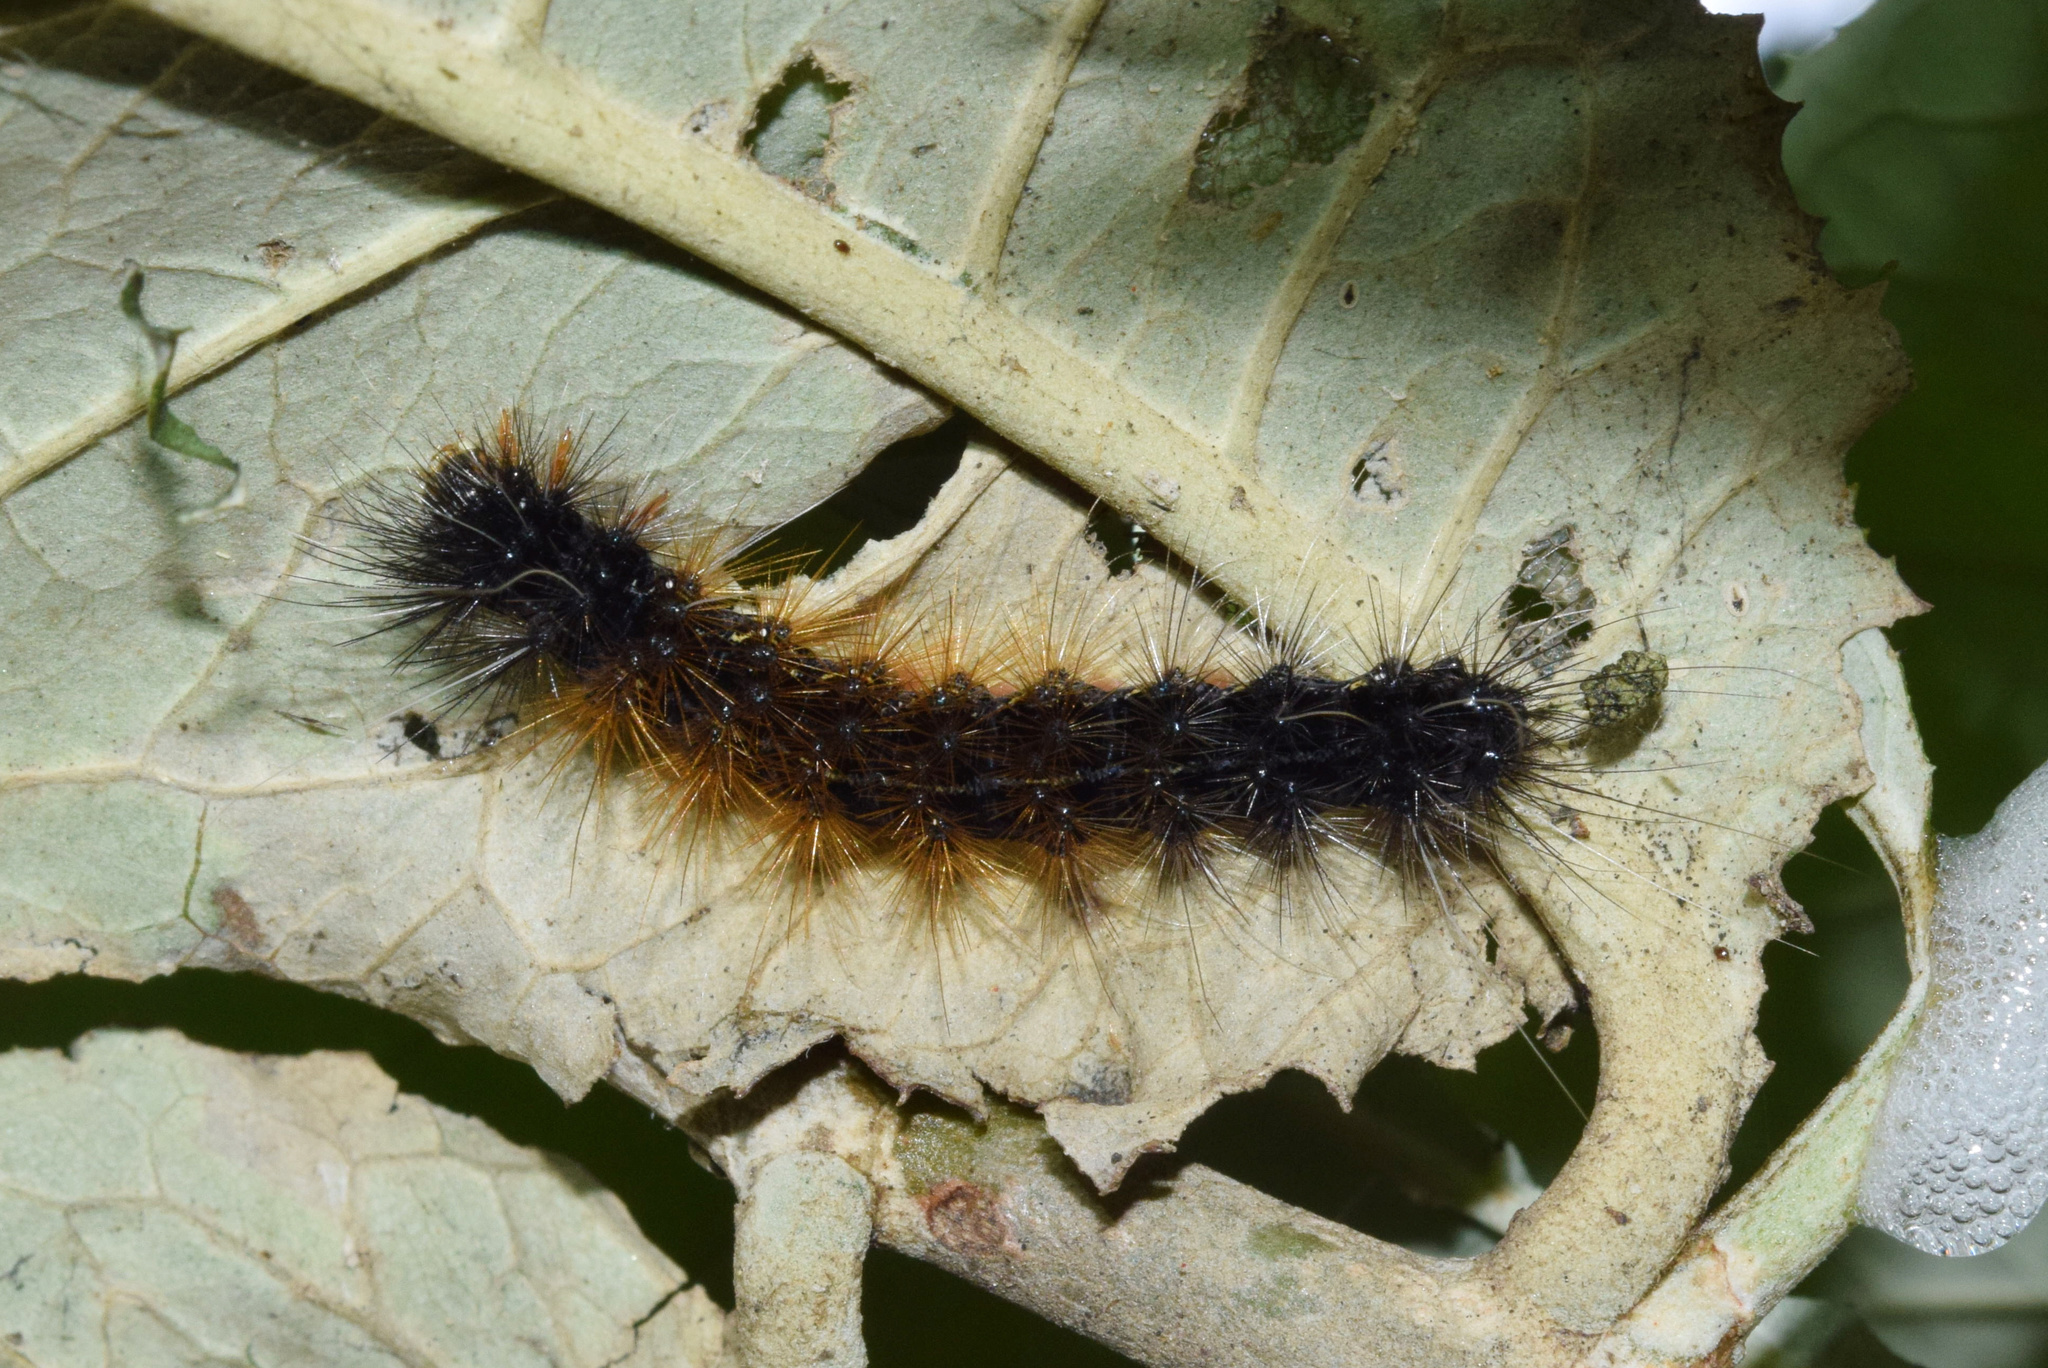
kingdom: Animalia
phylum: Arthropoda
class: Insecta
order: Lepidoptera
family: Erebidae
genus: Rhodogastria
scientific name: Rhodogastria similis
